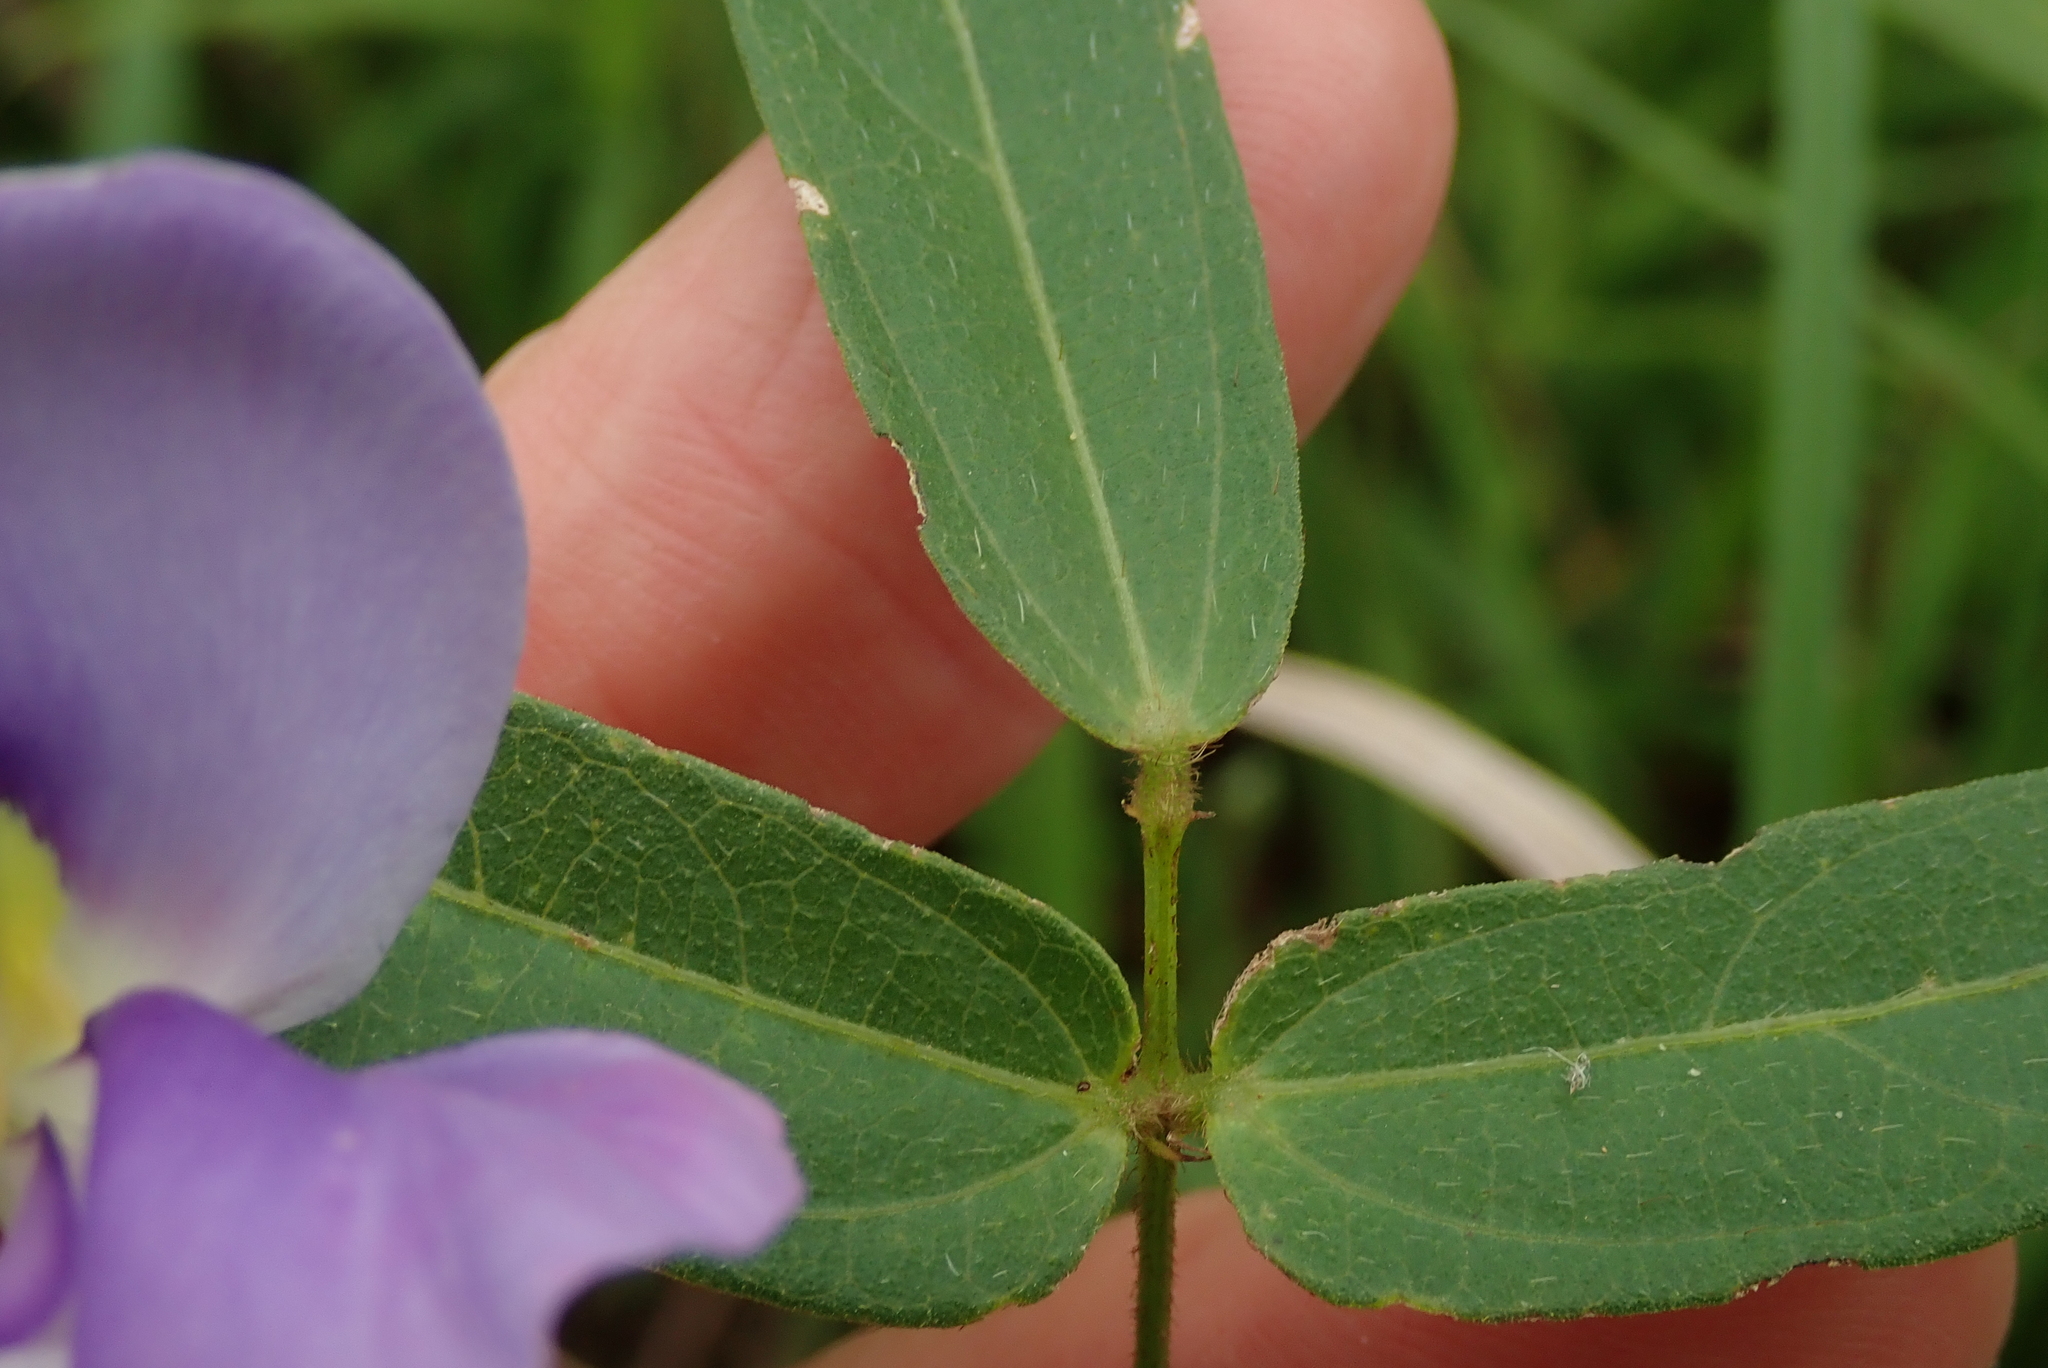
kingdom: Plantae
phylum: Tracheophyta
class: Magnoliopsida
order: Fabales
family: Fabaceae
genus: Vigna
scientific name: Vigna vexillata
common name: Zombi pea
